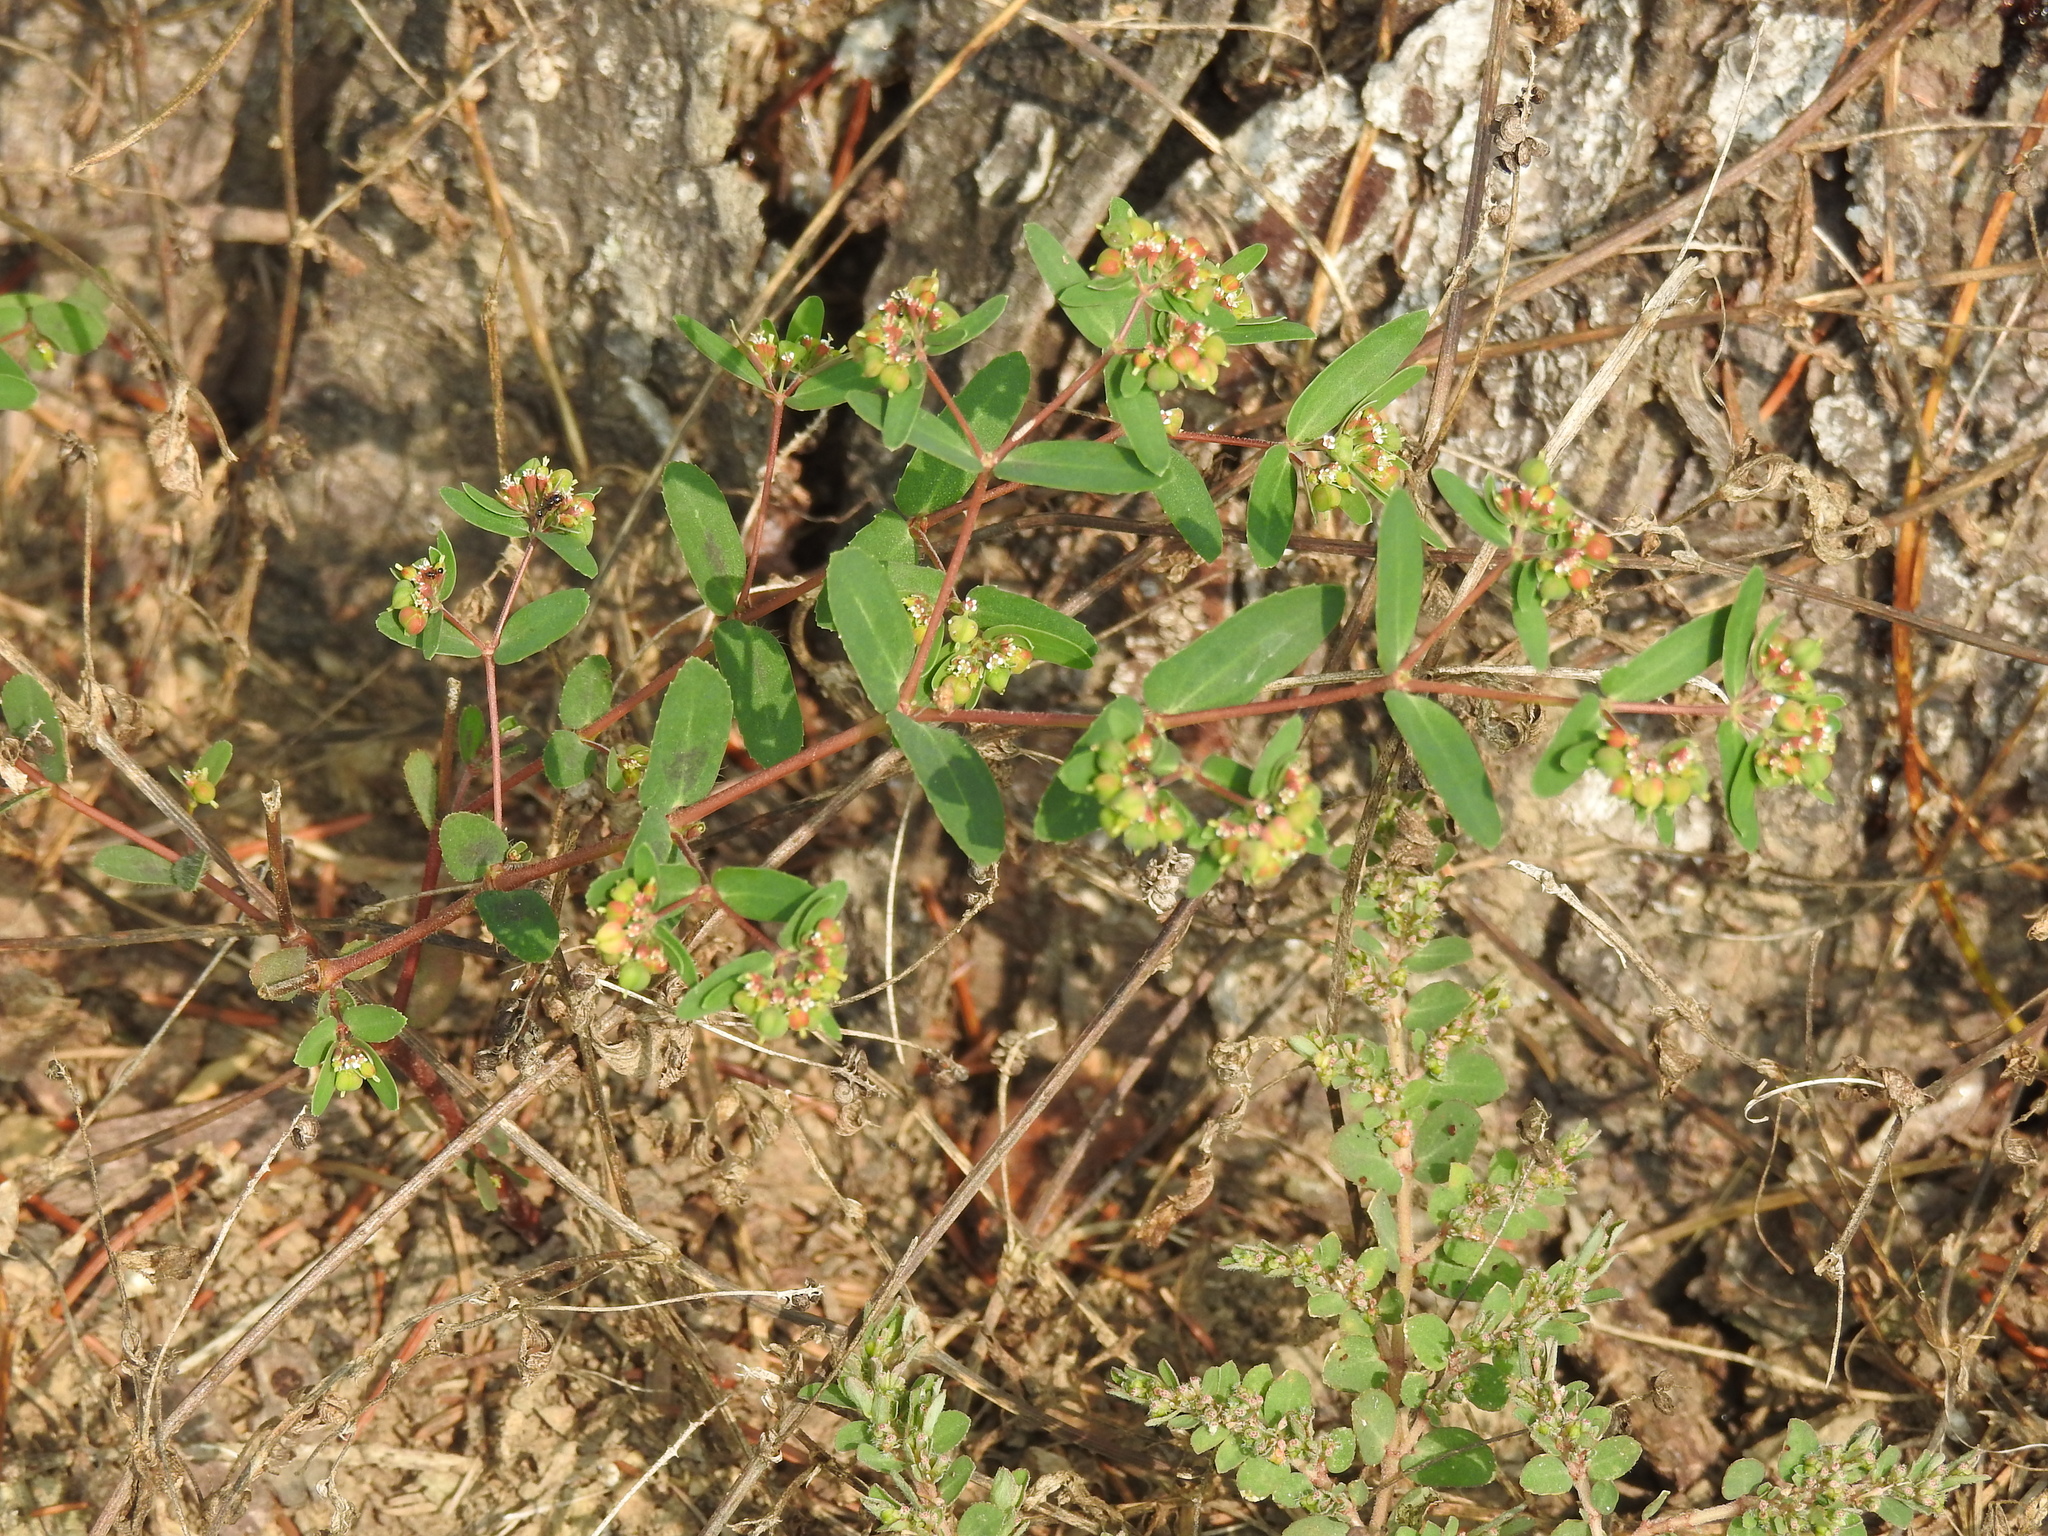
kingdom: Plantae
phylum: Tracheophyta
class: Magnoliopsida
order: Malpighiales
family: Euphorbiaceae
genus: Euphorbia
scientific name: Euphorbia nutans
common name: Eyebane
